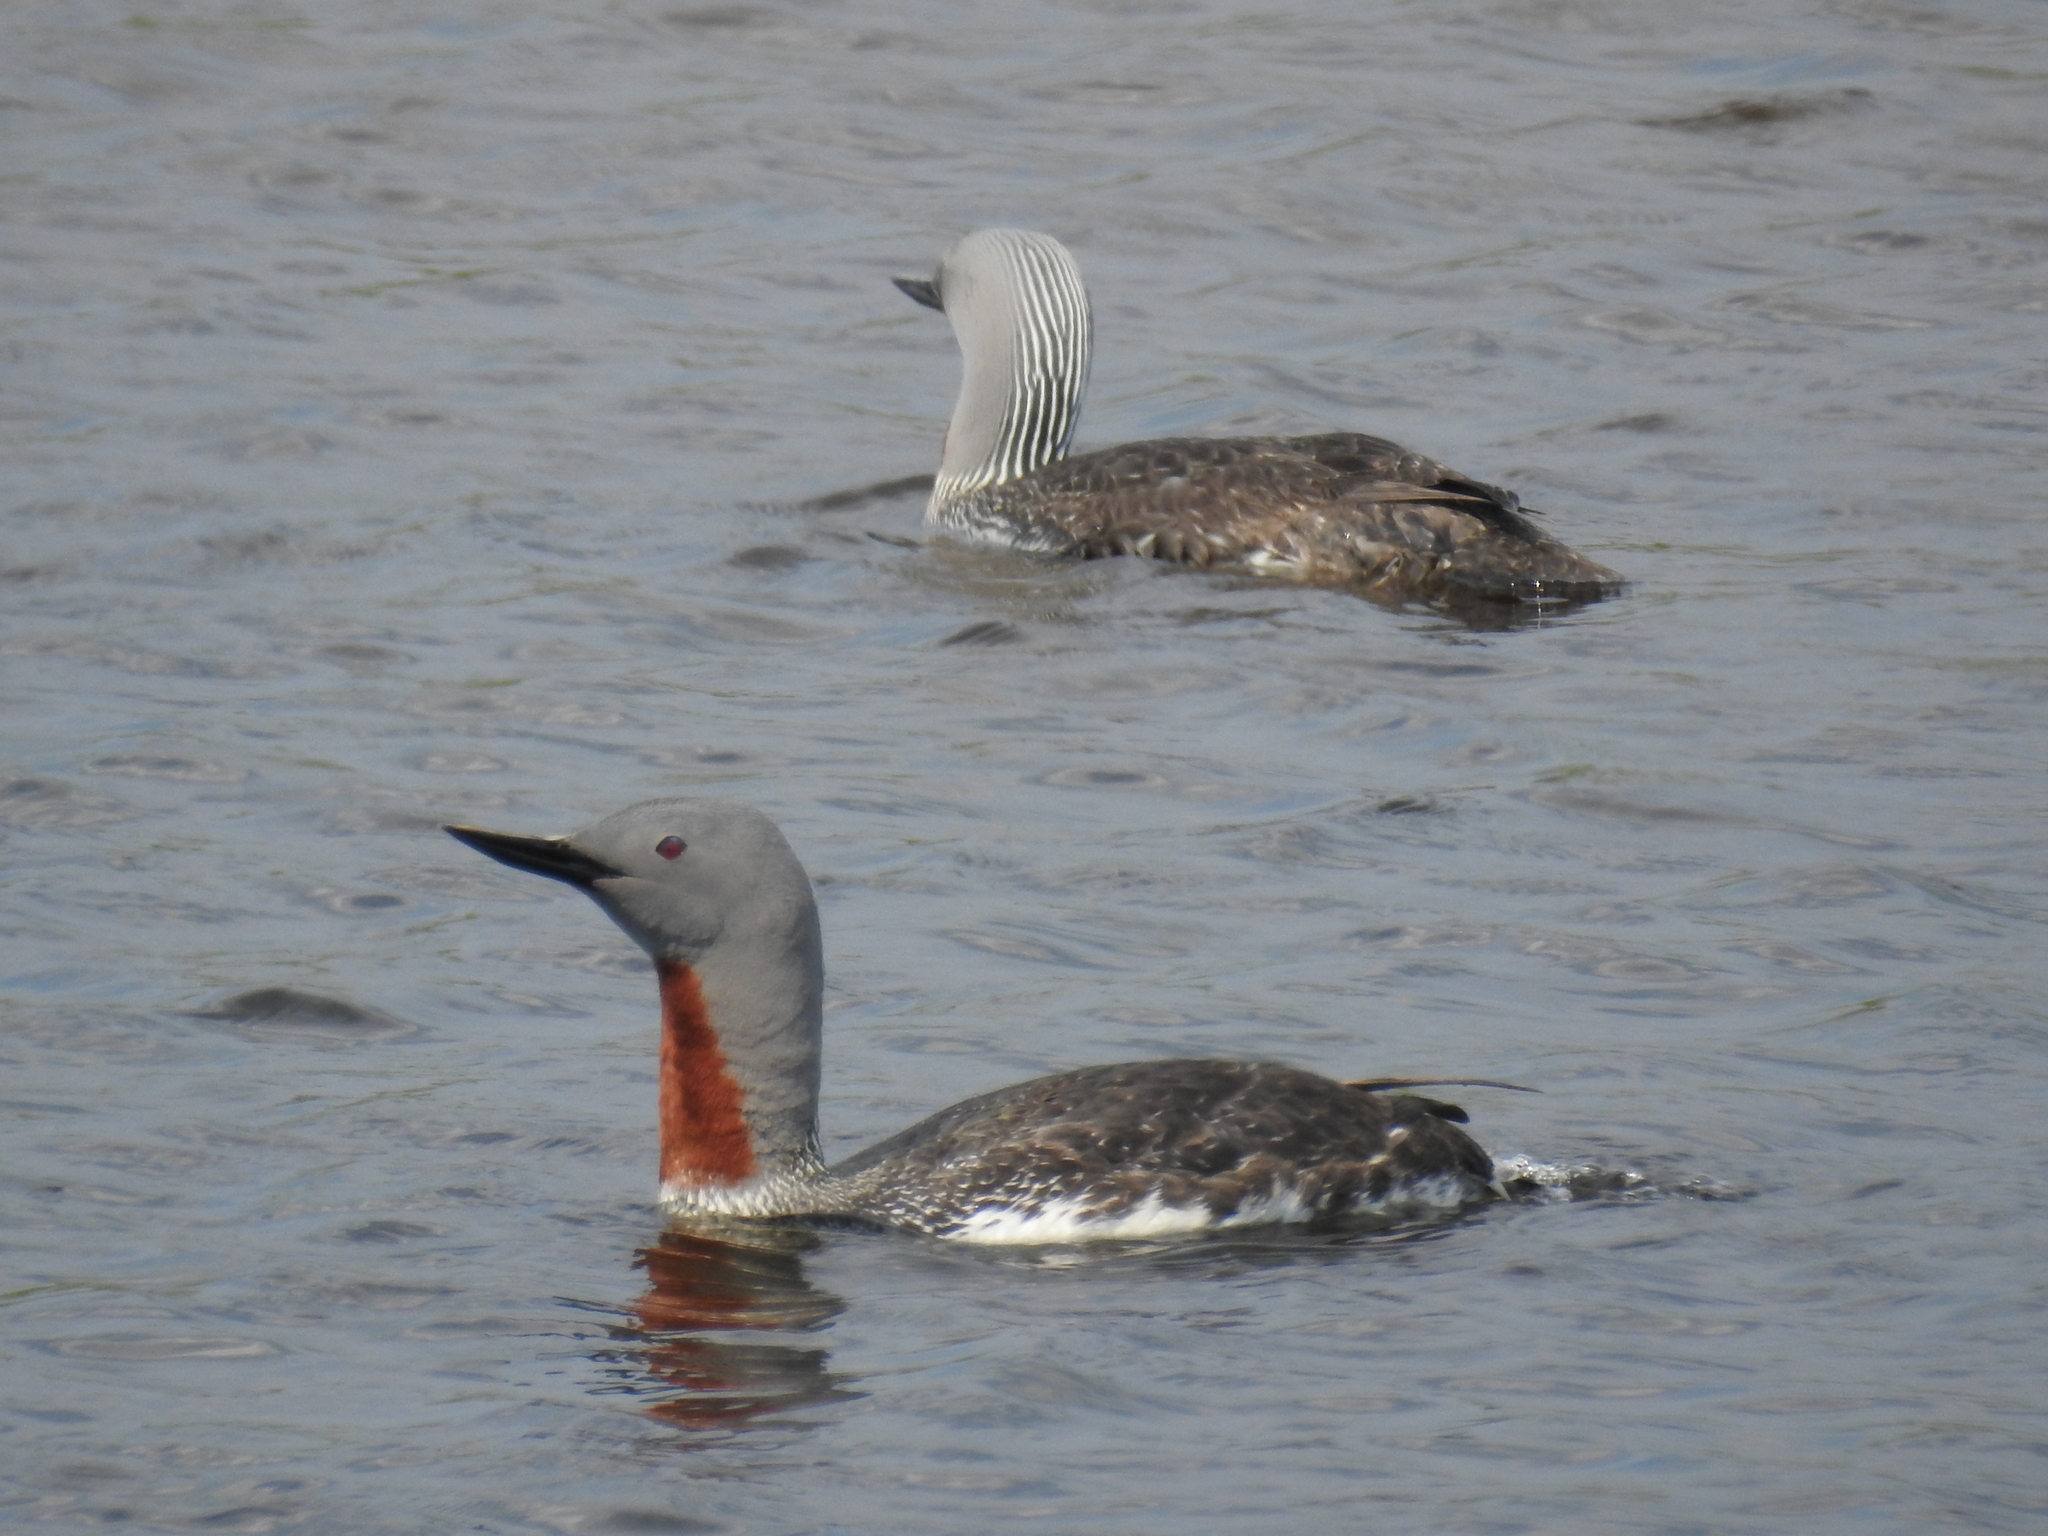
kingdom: Animalia
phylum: Chordata
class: Aves
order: Gaviiformes
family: Gaviidae
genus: Gavia
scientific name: Gavia stellata
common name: Red-throated loon
